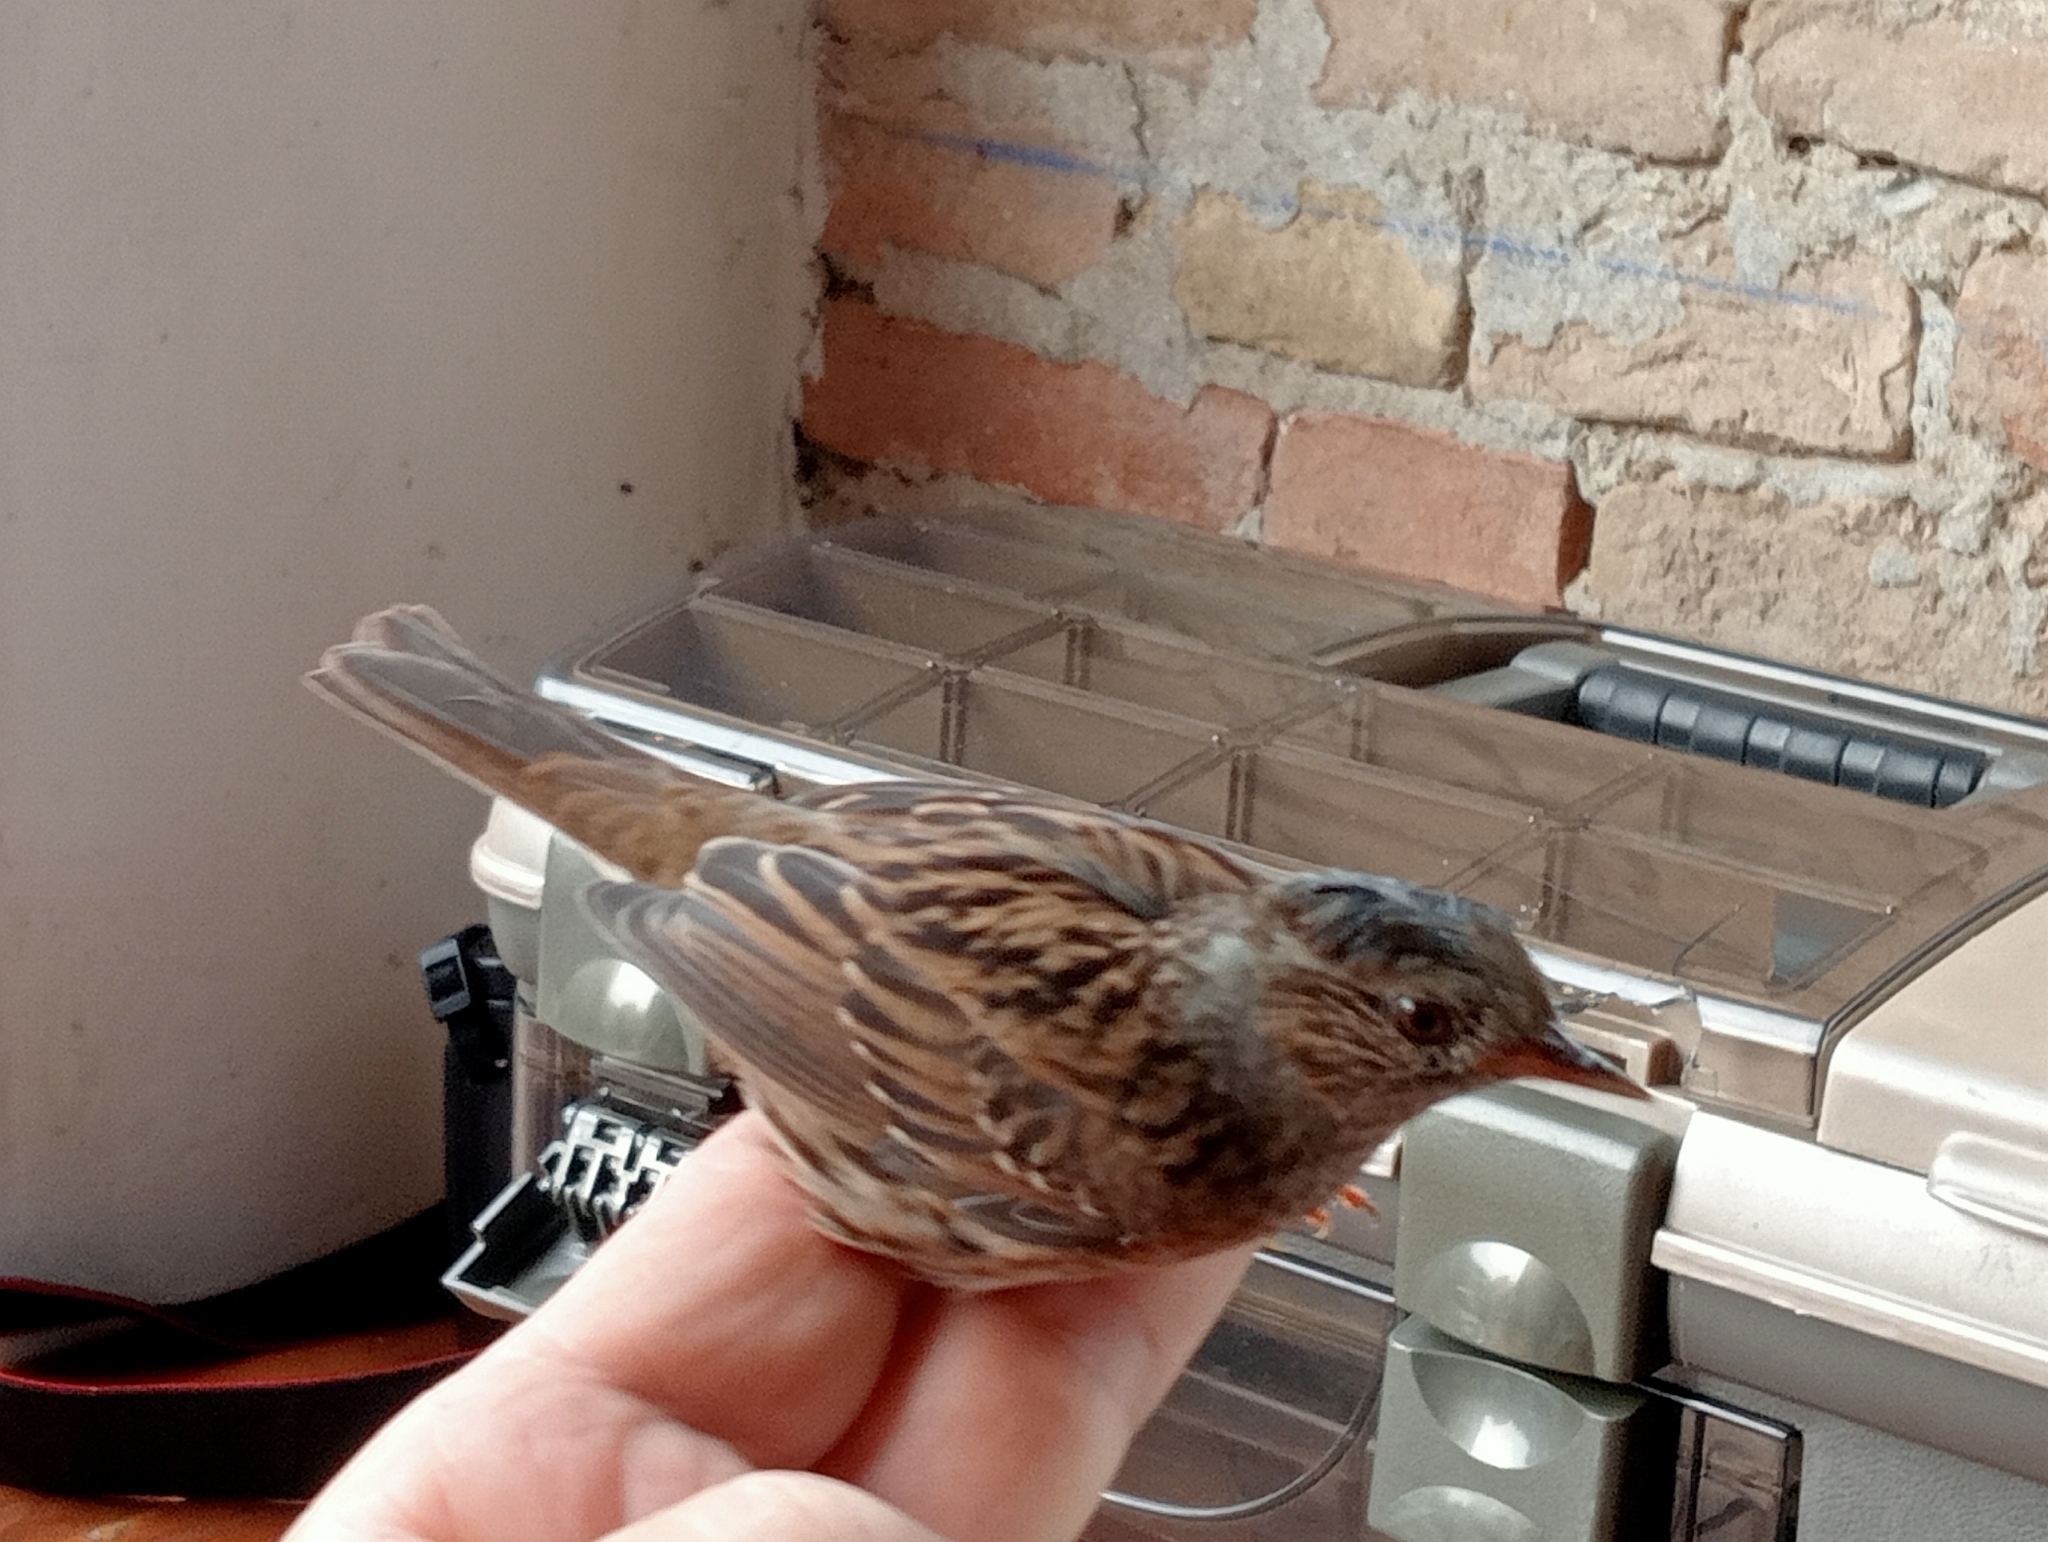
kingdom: Animalia
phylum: Chordata
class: Aves
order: Passeriformes
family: Prunellidae
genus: Prunella
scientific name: Prunella modularis
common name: Dunnock
